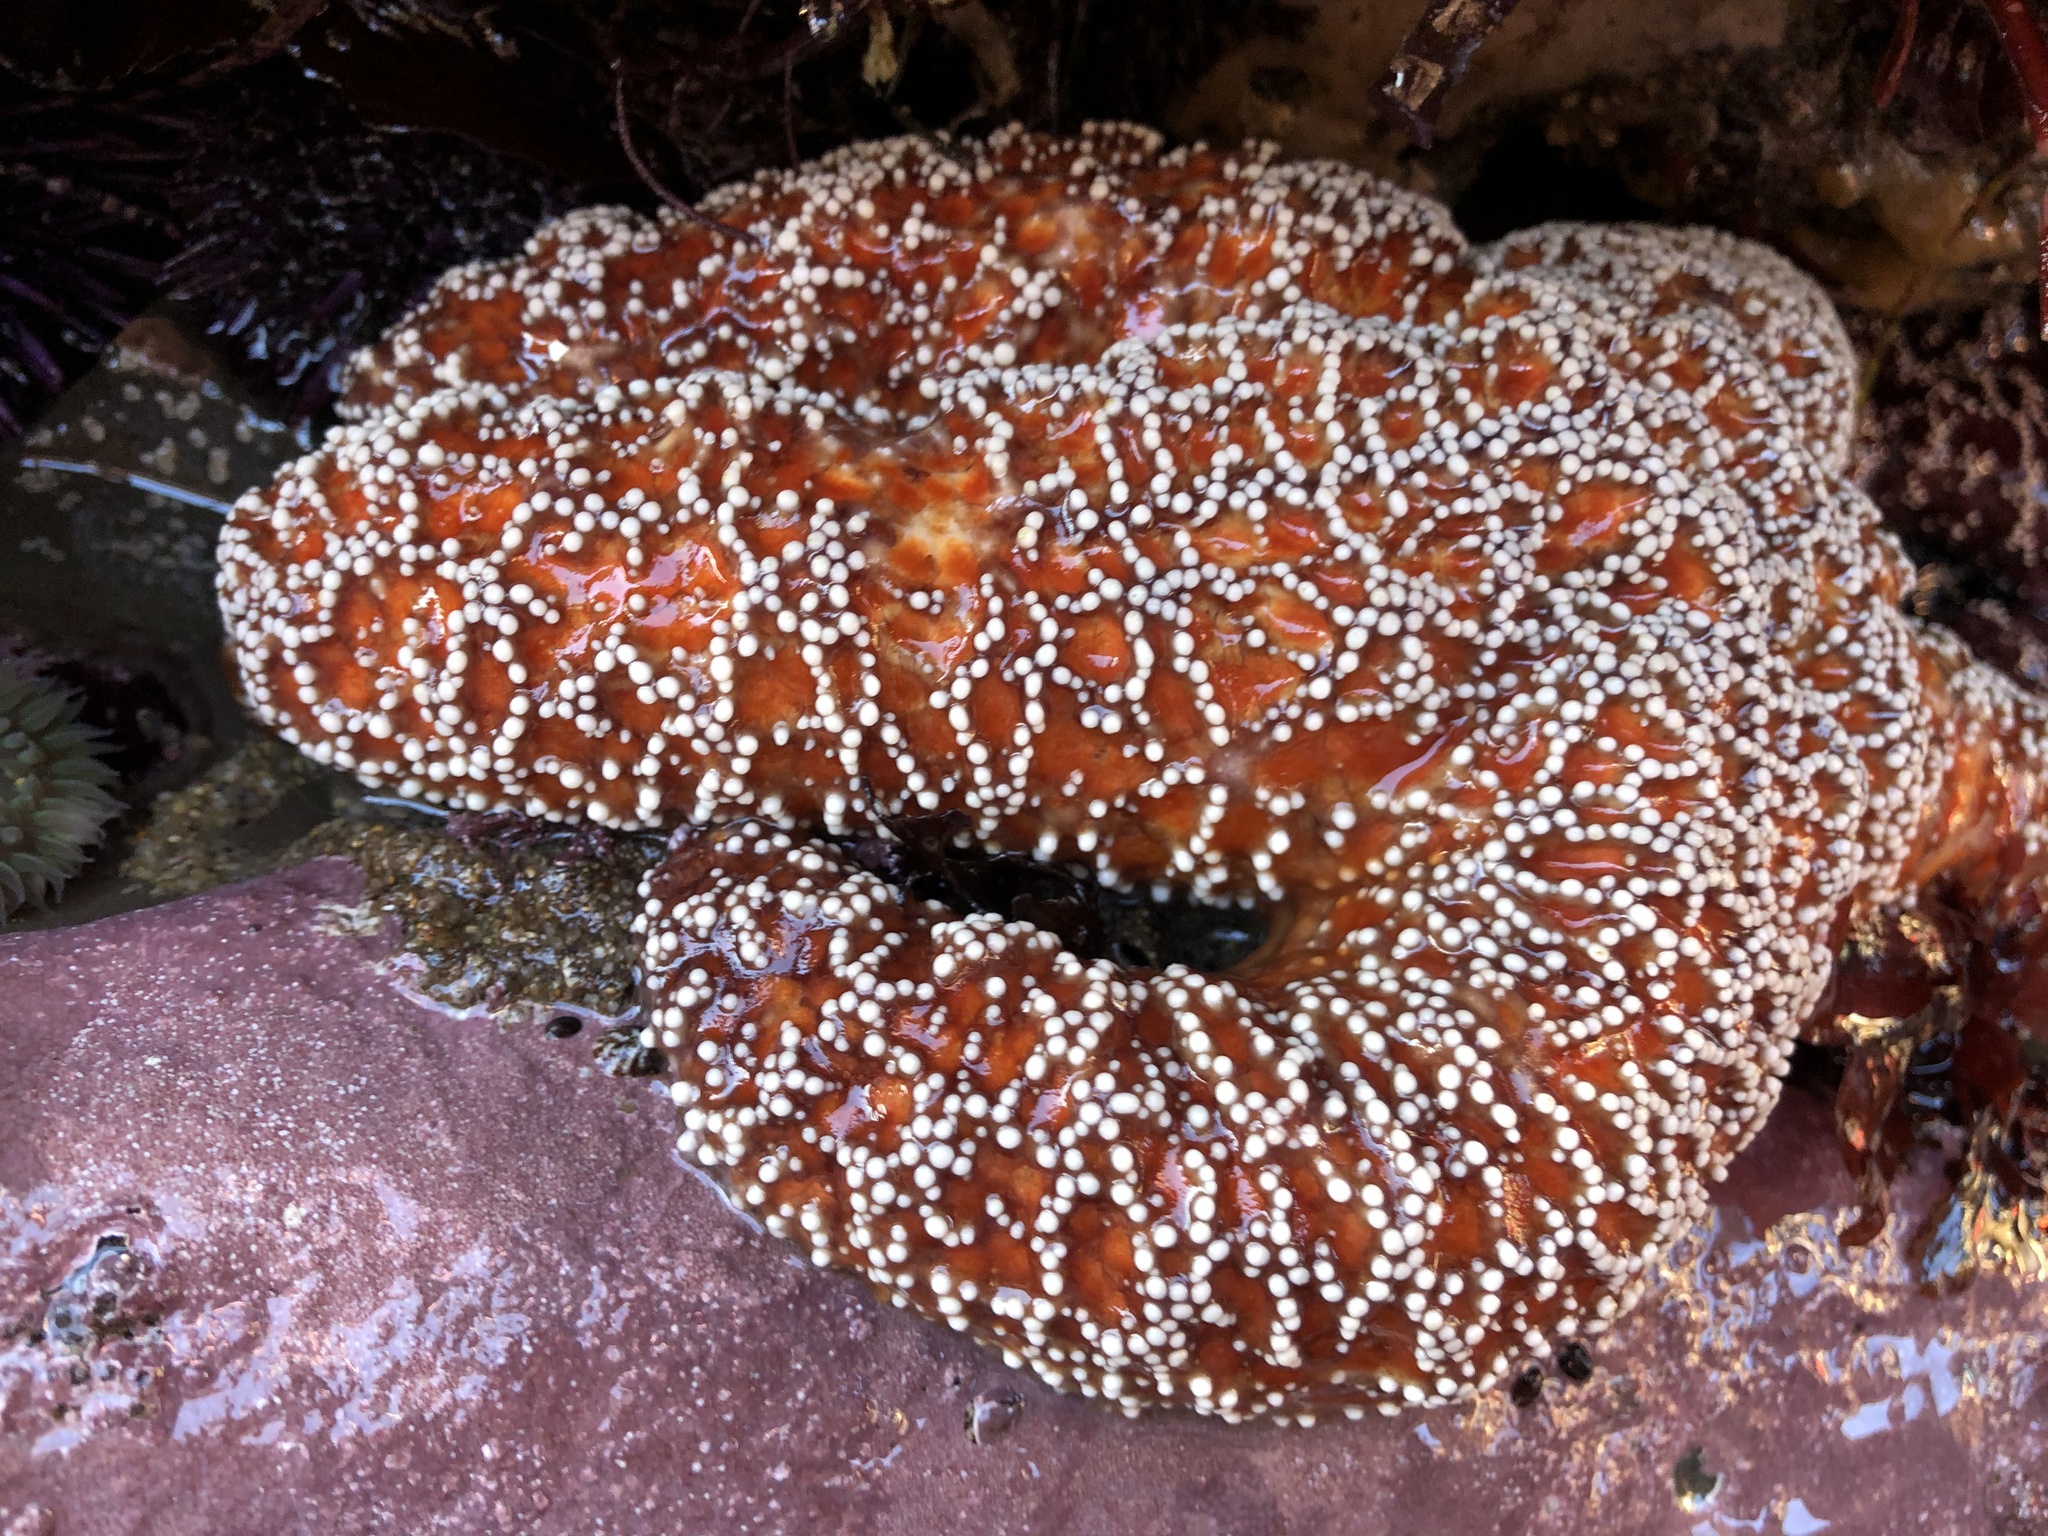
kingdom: Animalia
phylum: Echinodermata
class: Asteroidea
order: Forcipulatida
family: Asteriidae
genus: Pisaster
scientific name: Pisaster ochraceus
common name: Ochre stars
